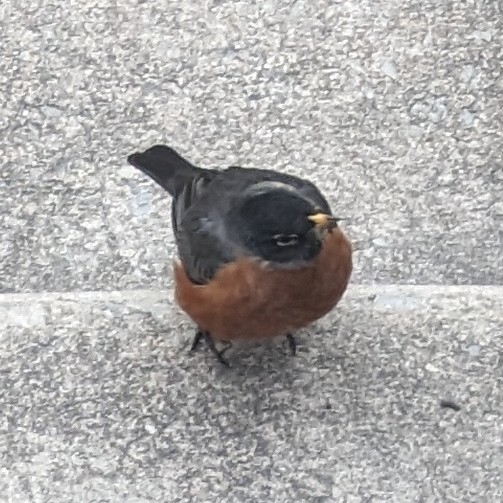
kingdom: Animalia
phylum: Chordata
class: Aves
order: Passeriformes
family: Turdidae
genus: Turdus
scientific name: Turdus migratorius
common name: American robin
